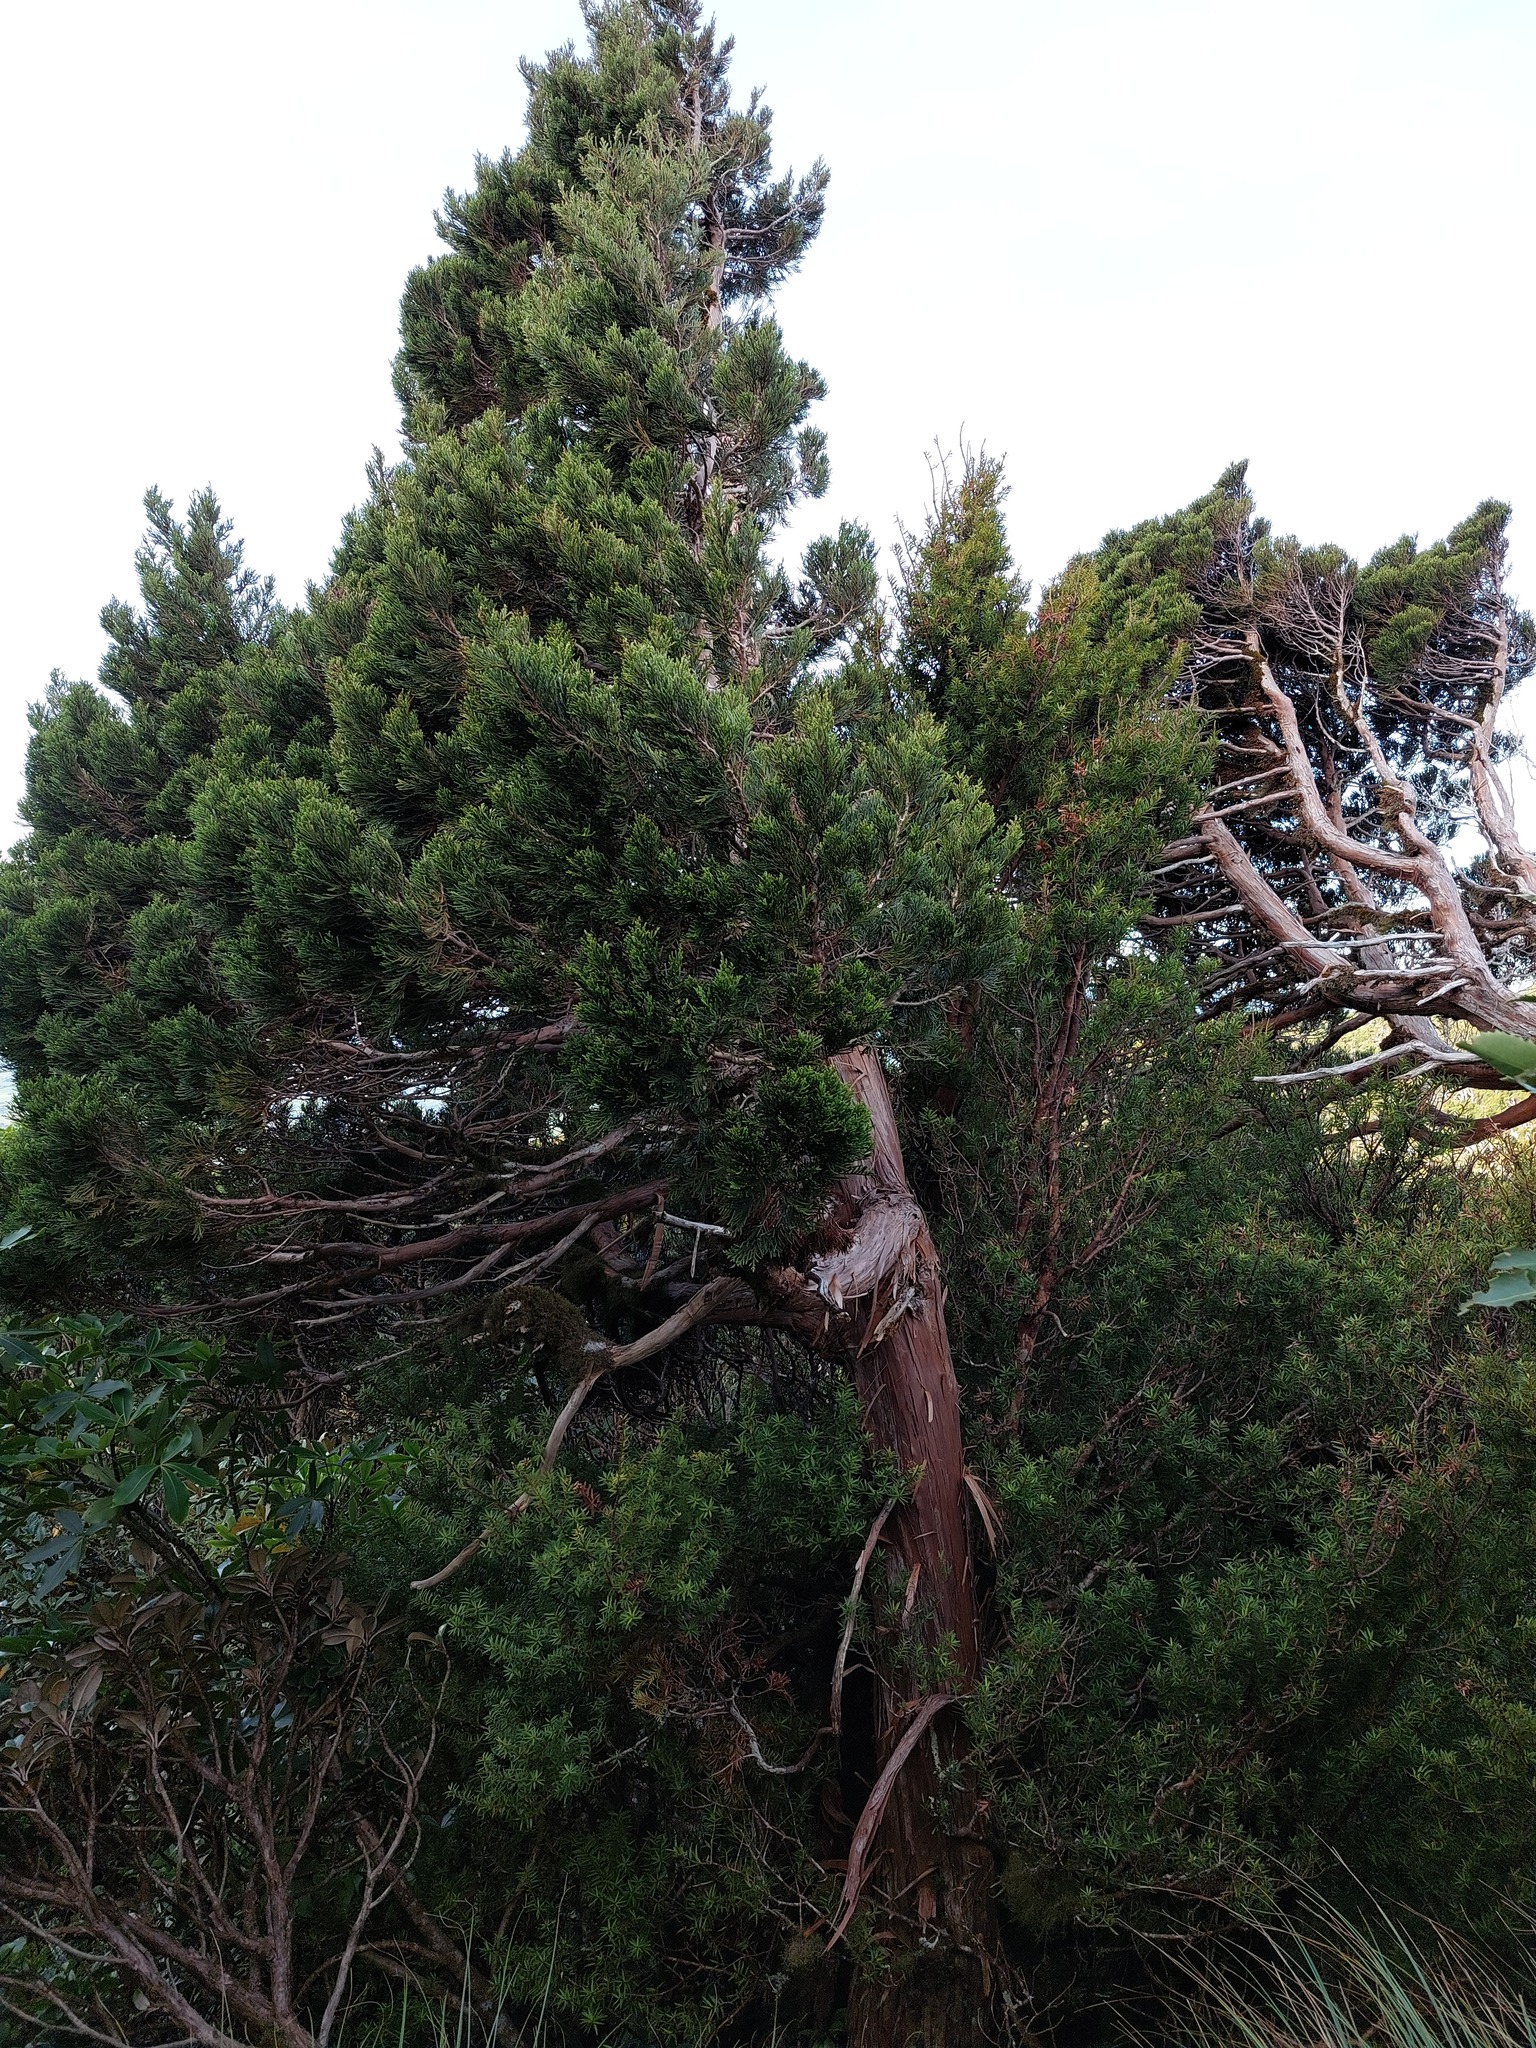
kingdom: Plantae
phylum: Tracheophyta
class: Pinopsida
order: Pinales
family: Cupressaceae
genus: Libocedrus
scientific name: Libocedrus plumosa
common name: New zealand cedar
